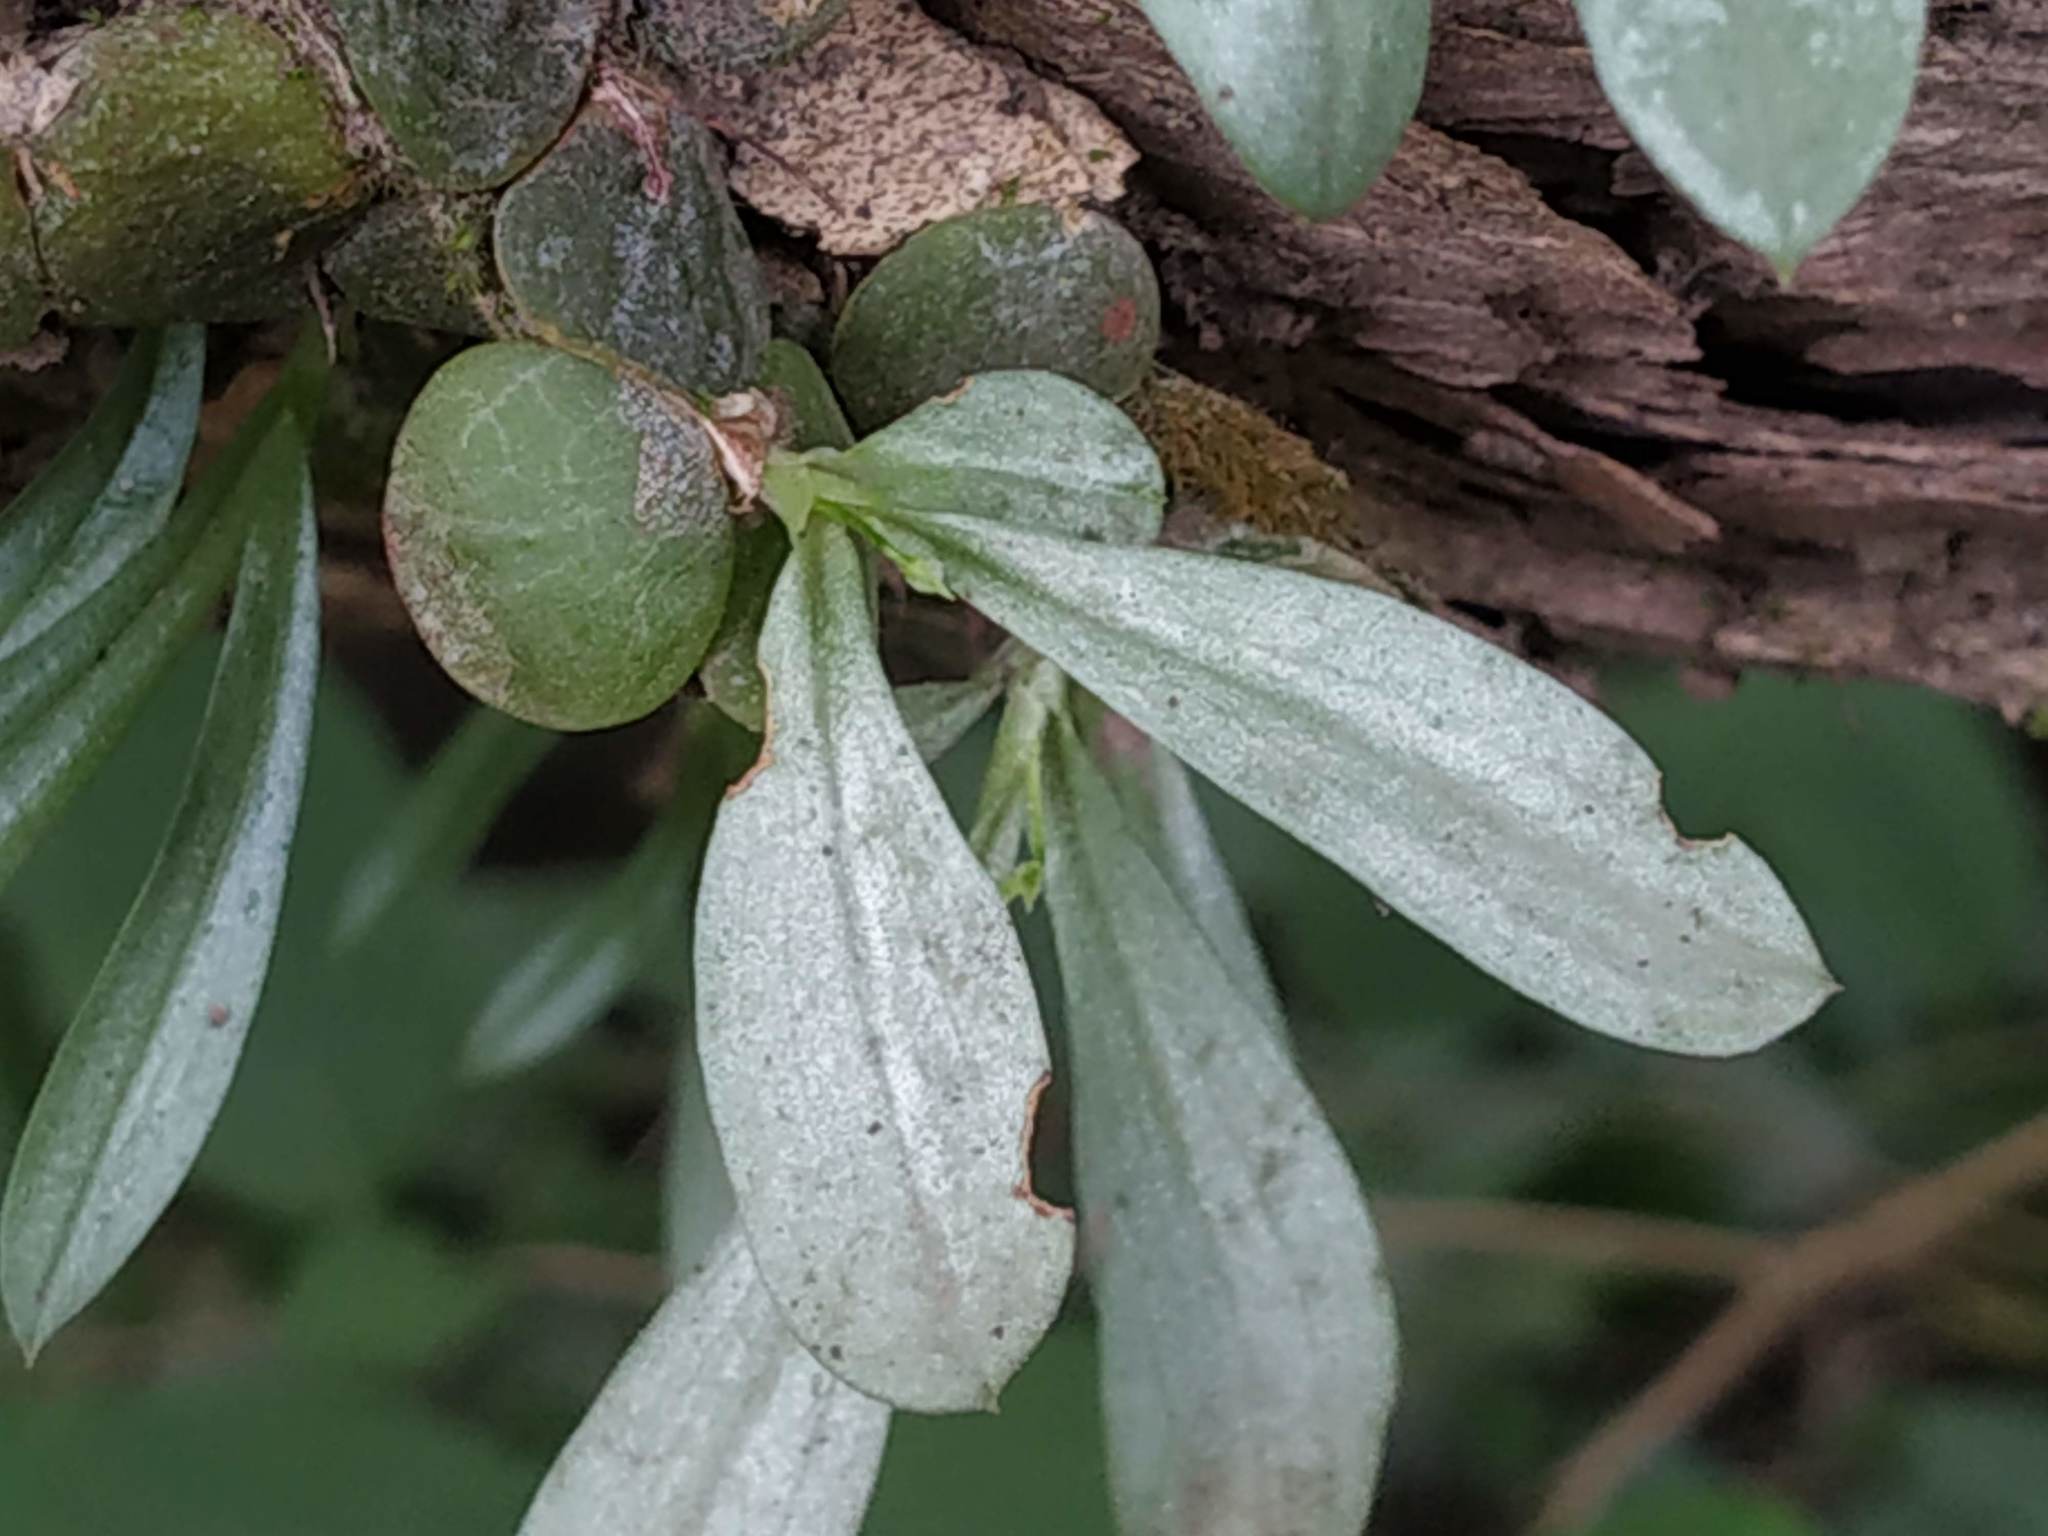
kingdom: Plantae
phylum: Tracheophyta
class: Liliopsida
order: Asparagales
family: Orchidaceae
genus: Porpax
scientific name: Porpax exilis
